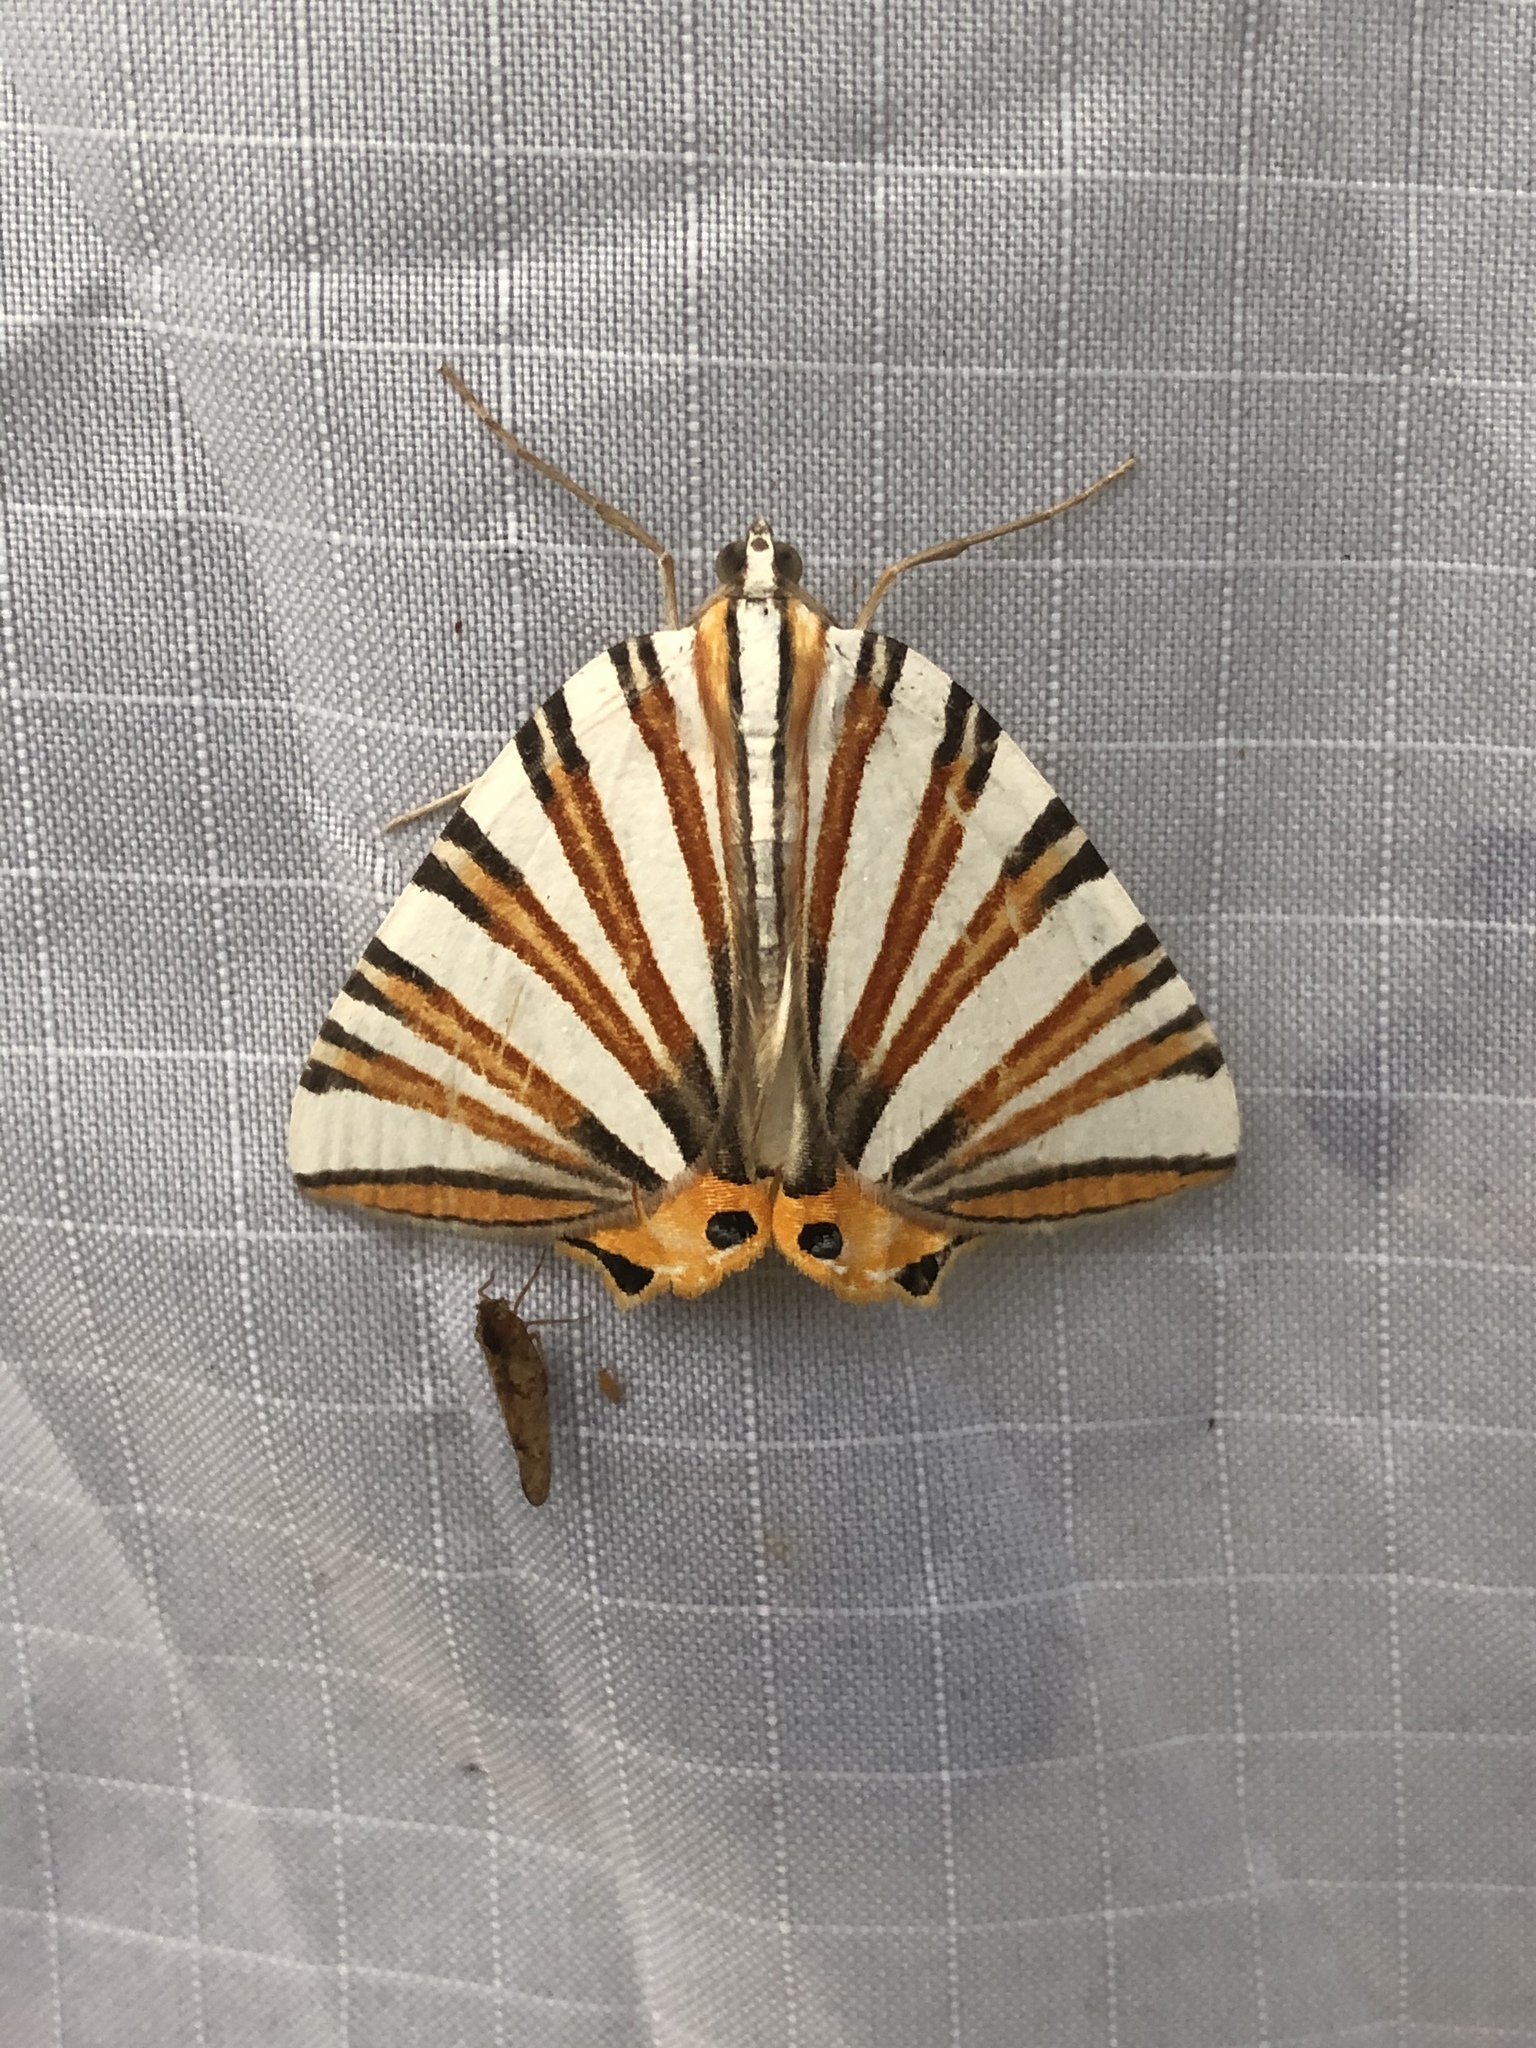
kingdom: Animalia
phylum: Arthropoda
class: Insecta
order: Lepidoptera
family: Geometridae
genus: Pityeja
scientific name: Pityeja histrionaria
